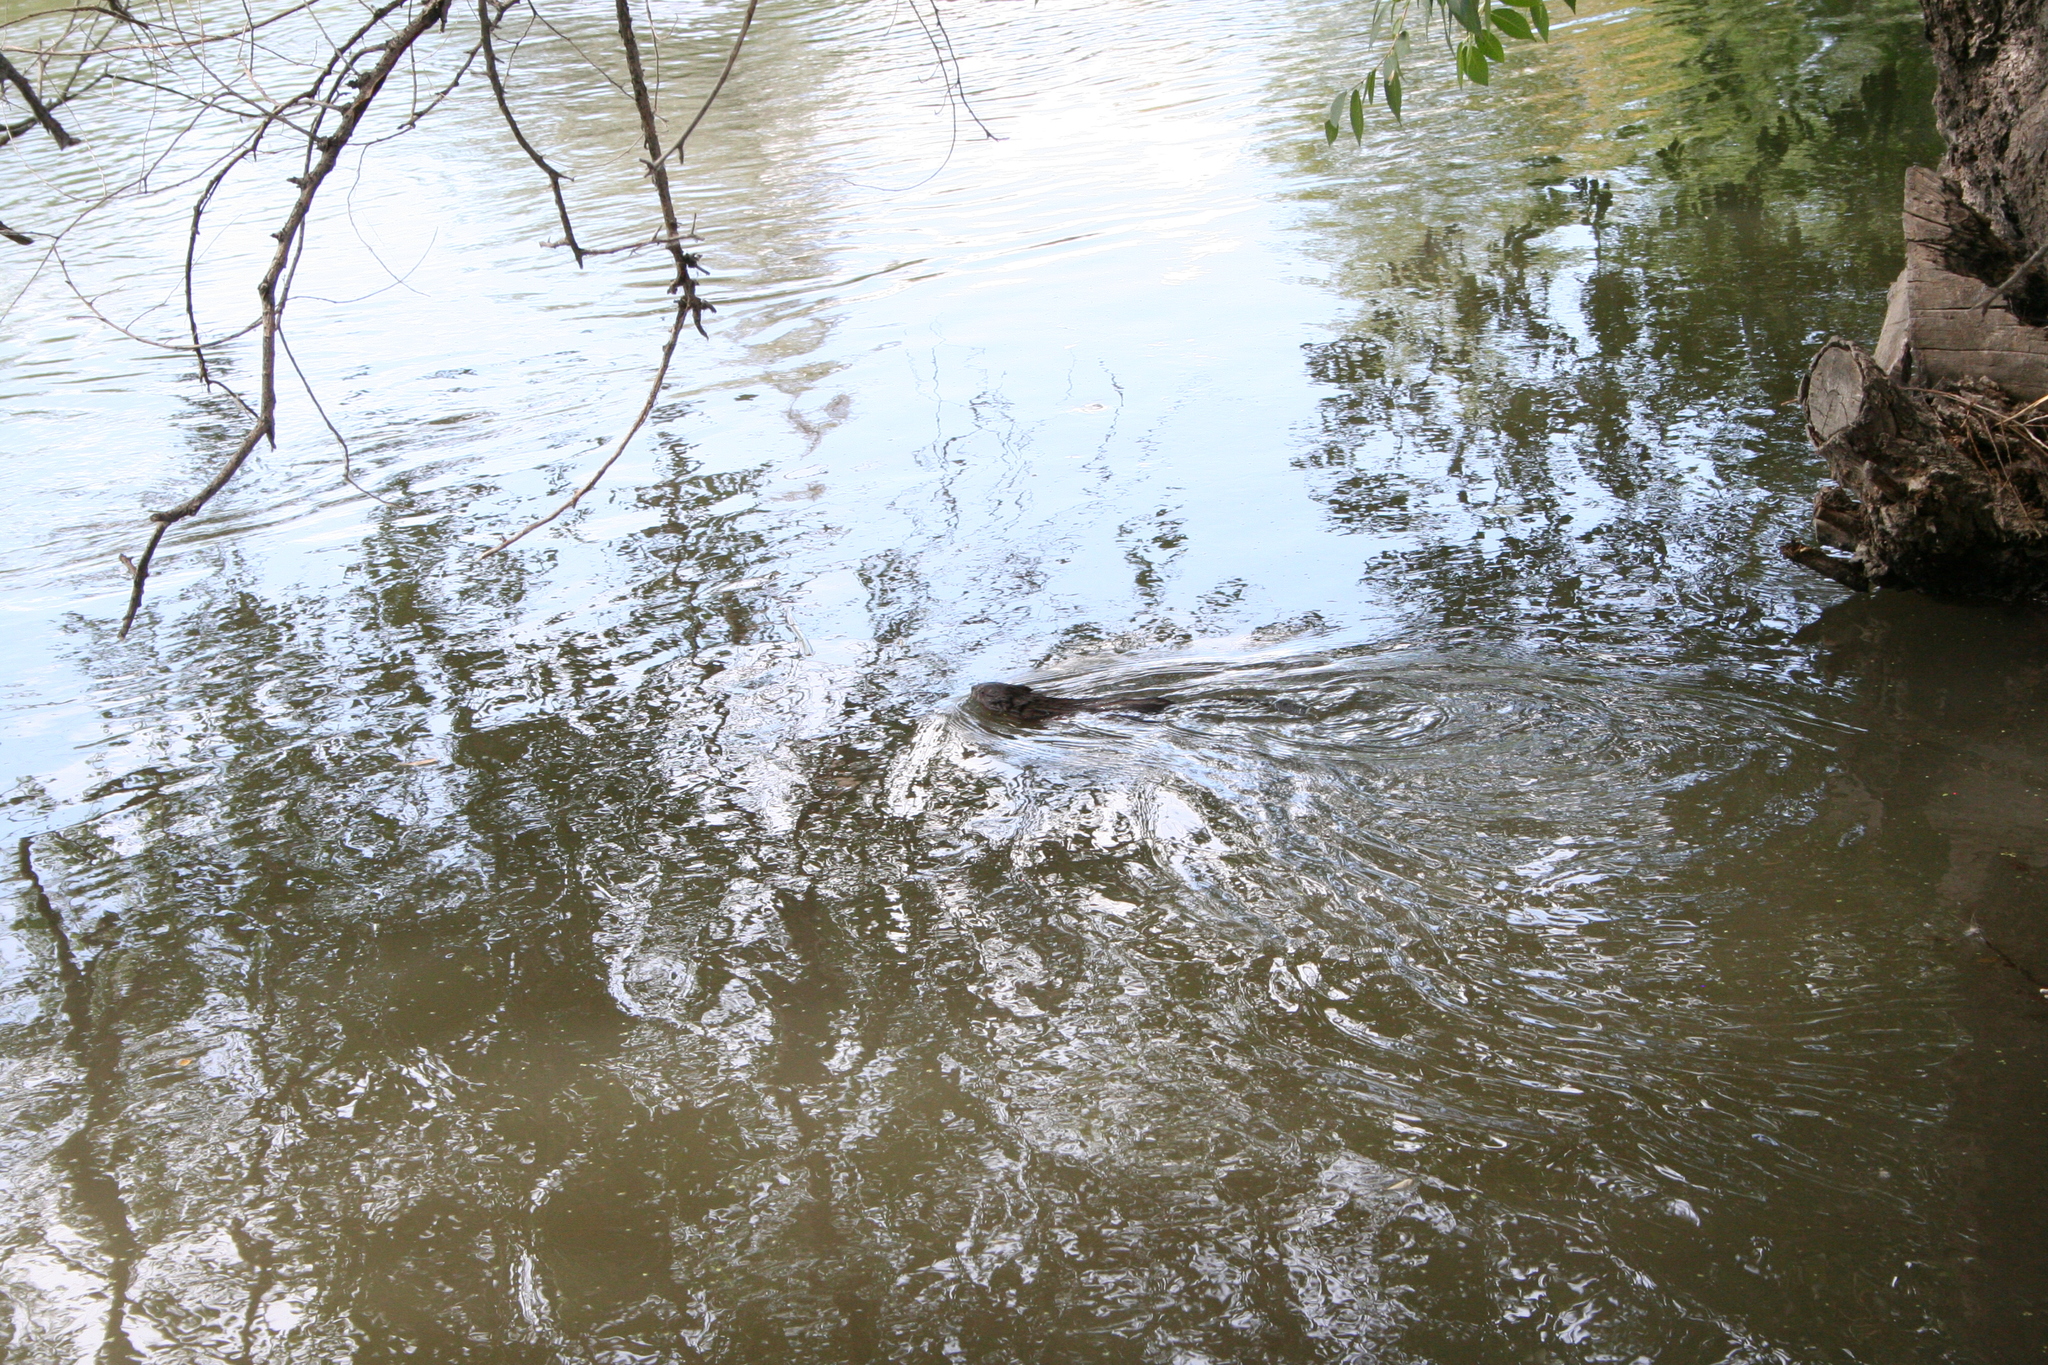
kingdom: Animalia
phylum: Chordata
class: Mammalia
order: Rodentia
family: Cricetidae
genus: Ondatra
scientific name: Ondatra zibethicus
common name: Muskrat
